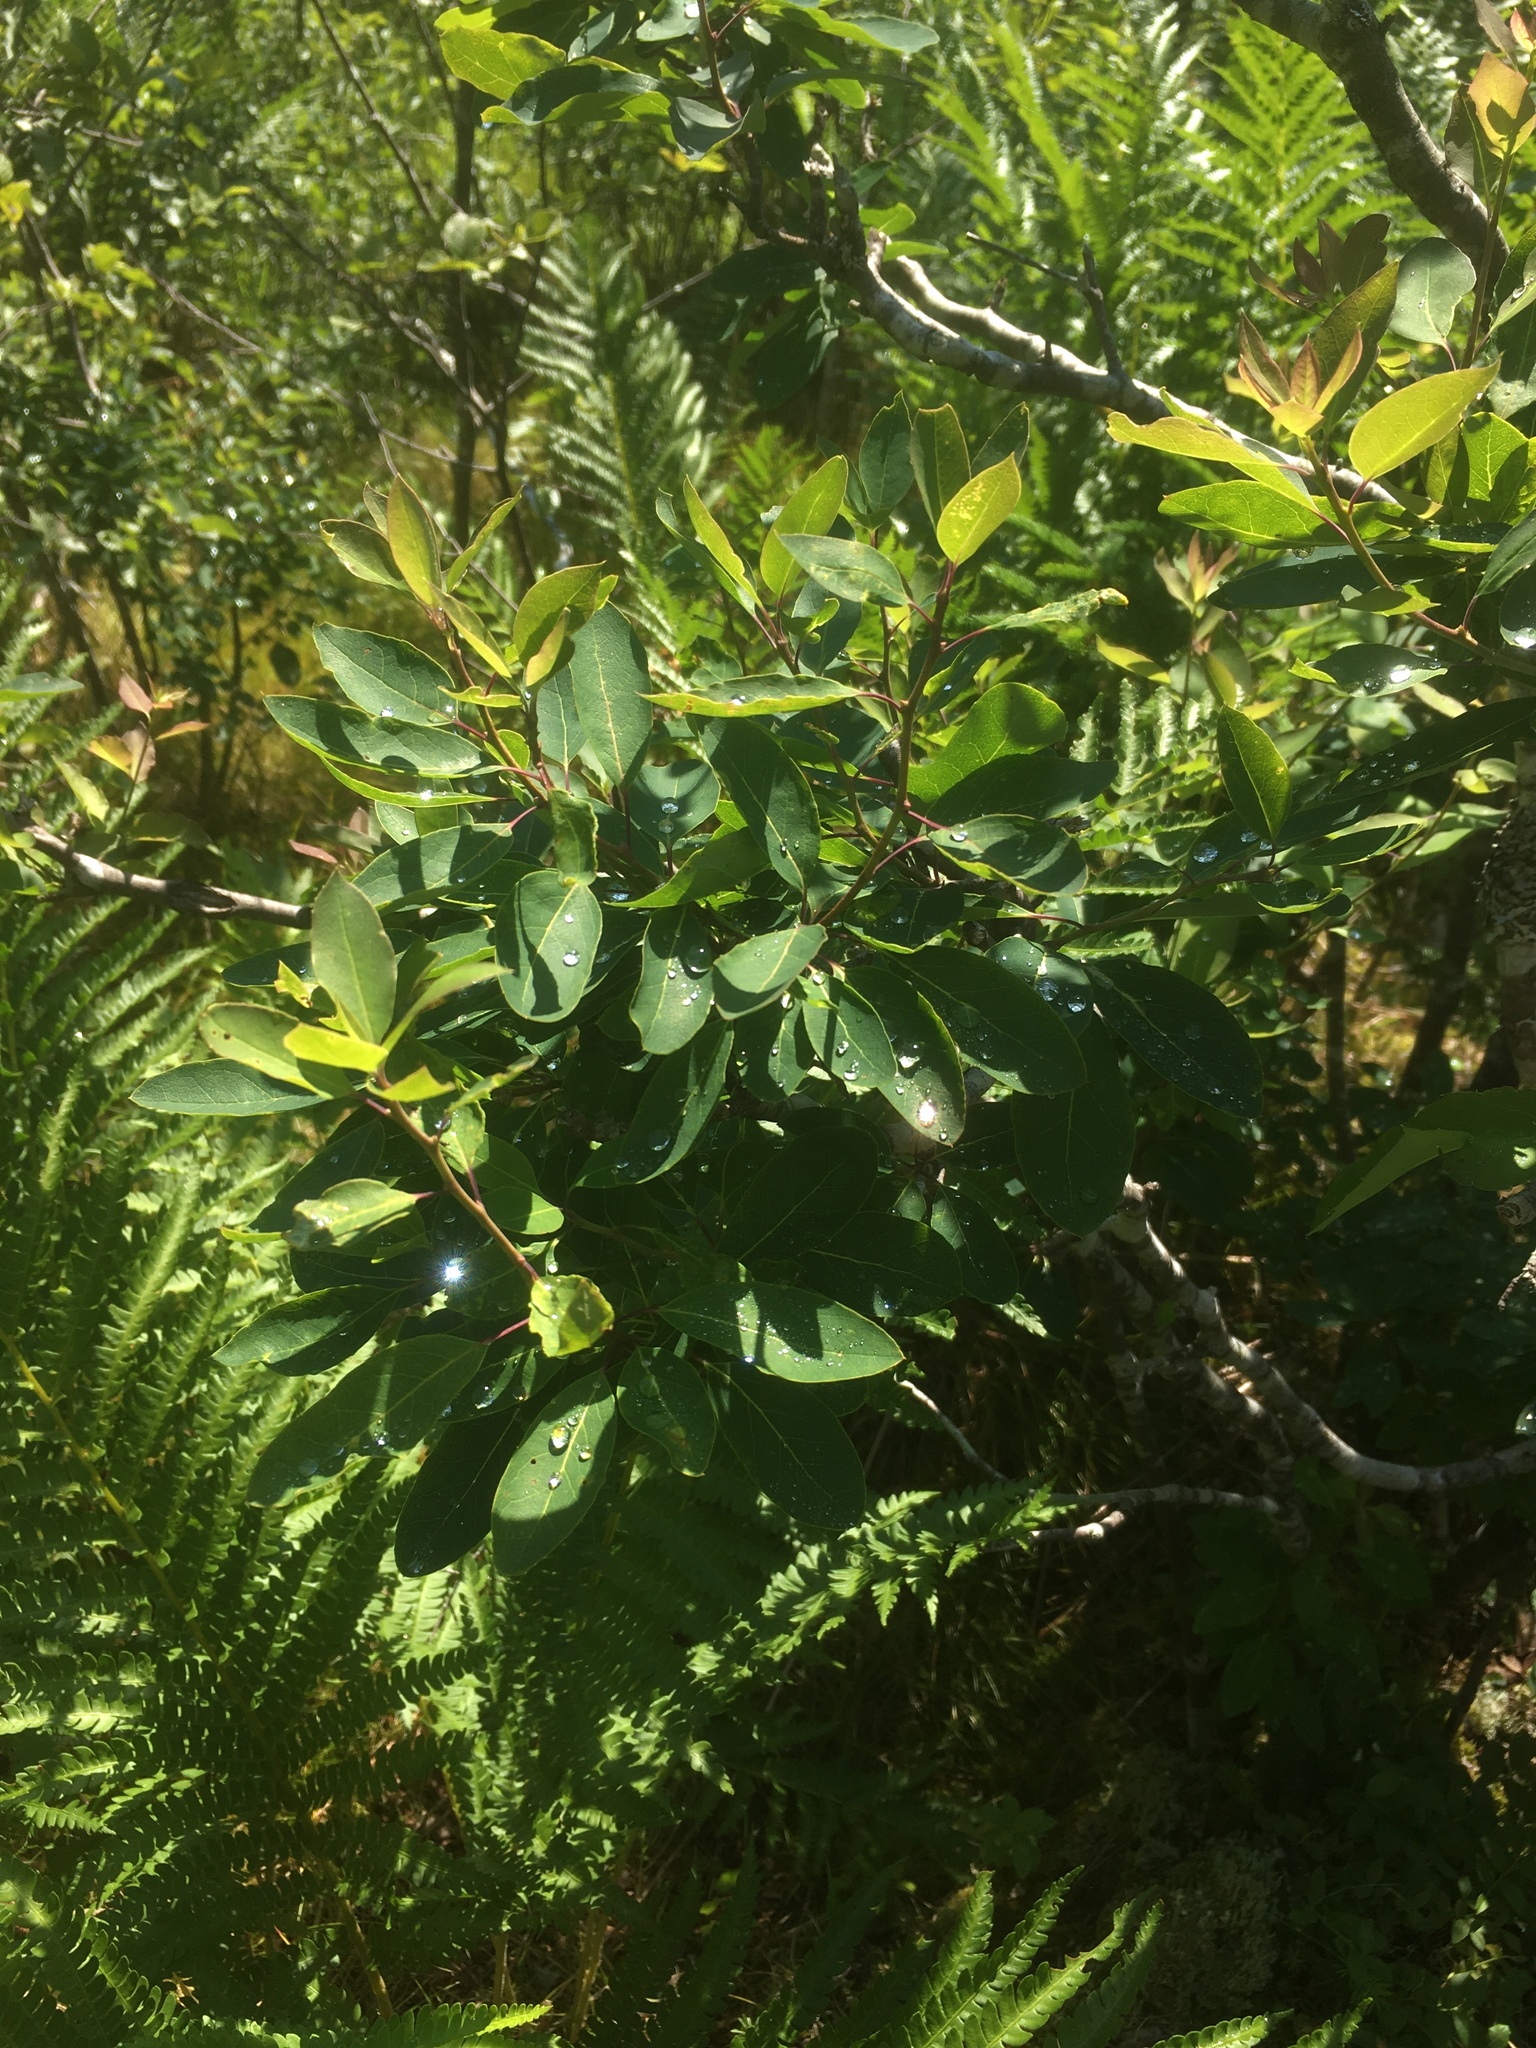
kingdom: Plantae
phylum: Tracheophyta
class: Magnoliopsida
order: Aquifoliales
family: Aquifoliaceae
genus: Ilex
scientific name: Ilex mucronata
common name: Catberry
